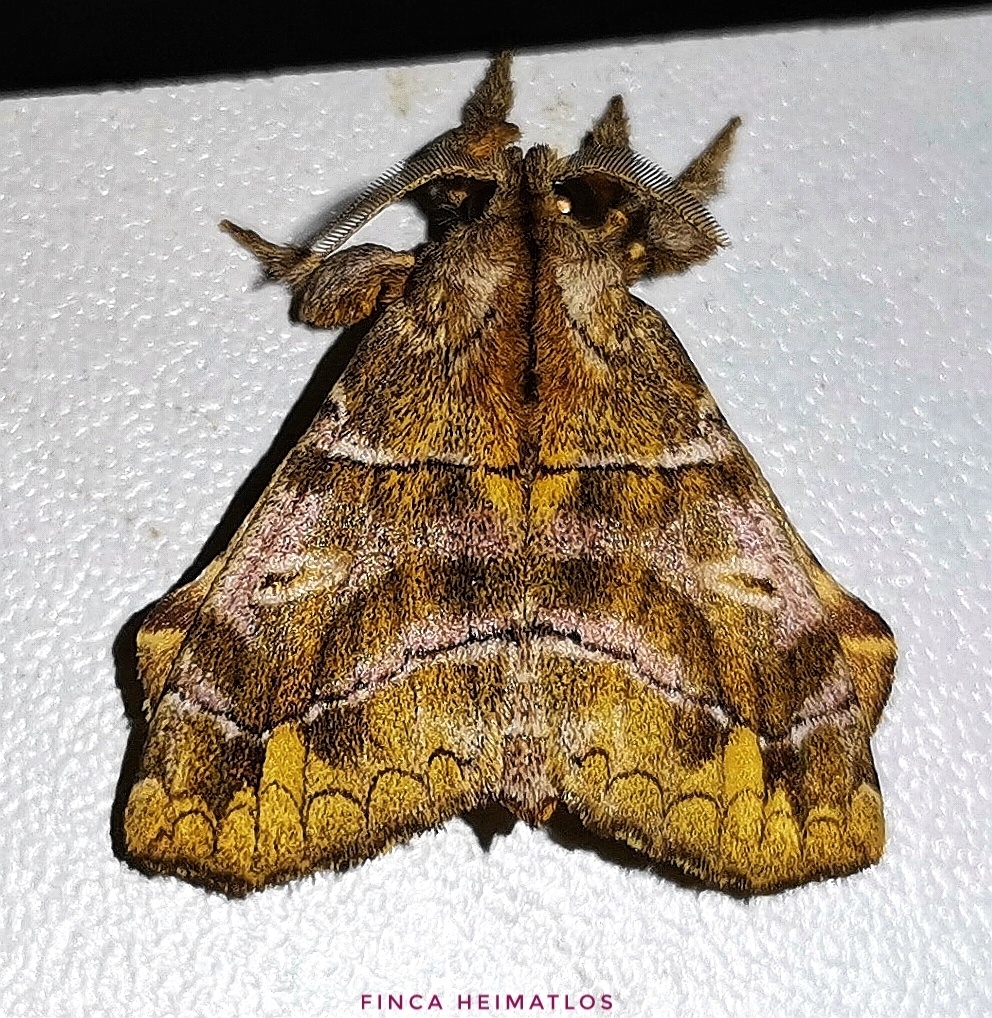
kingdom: Animalia
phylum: Arthropoda
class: Insecta
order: Lepidoptera
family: Apatelodidae
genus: Zanola
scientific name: Zanola verago
